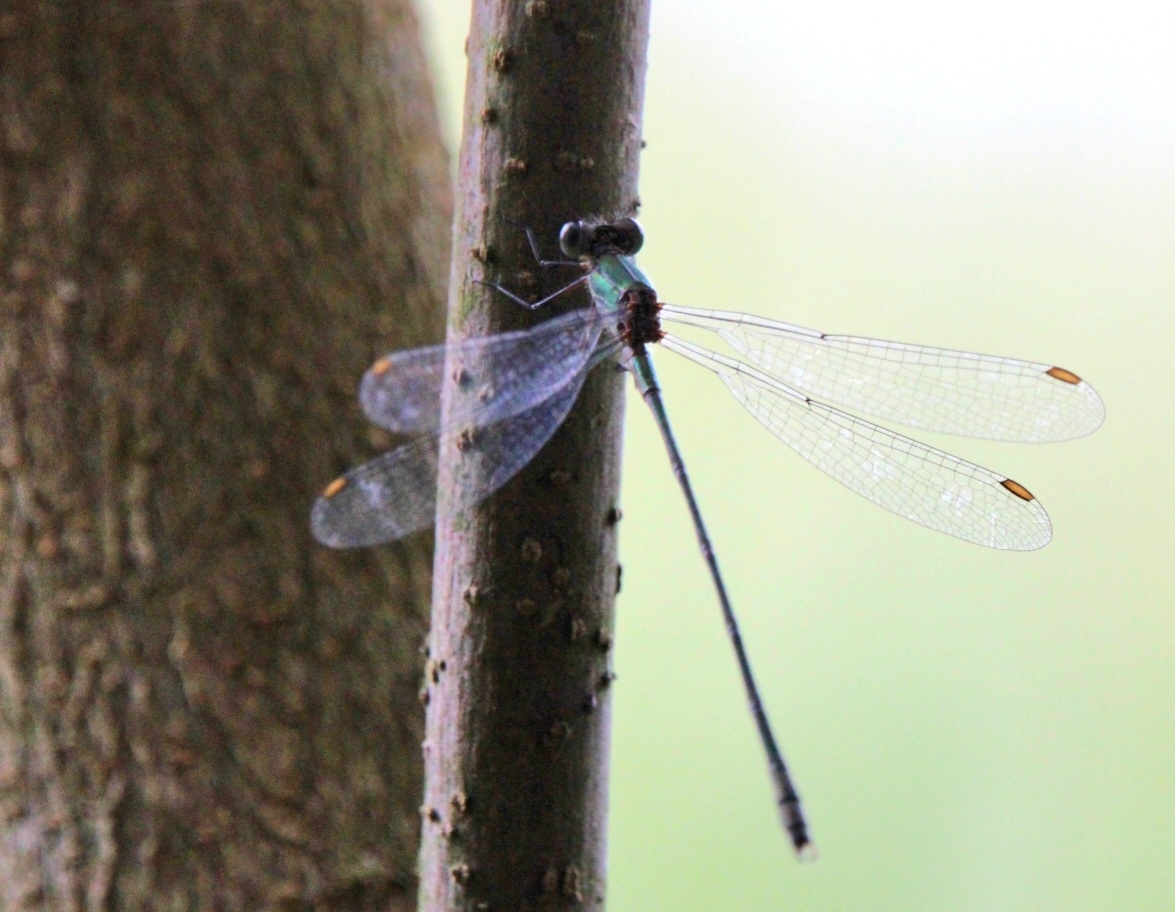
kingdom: Animalia
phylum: Arthropoda
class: Insecta
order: Odonata
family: Lestidae
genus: Chalcolestes
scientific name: Chalcolestes viridis
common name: Green emerald damselfly
